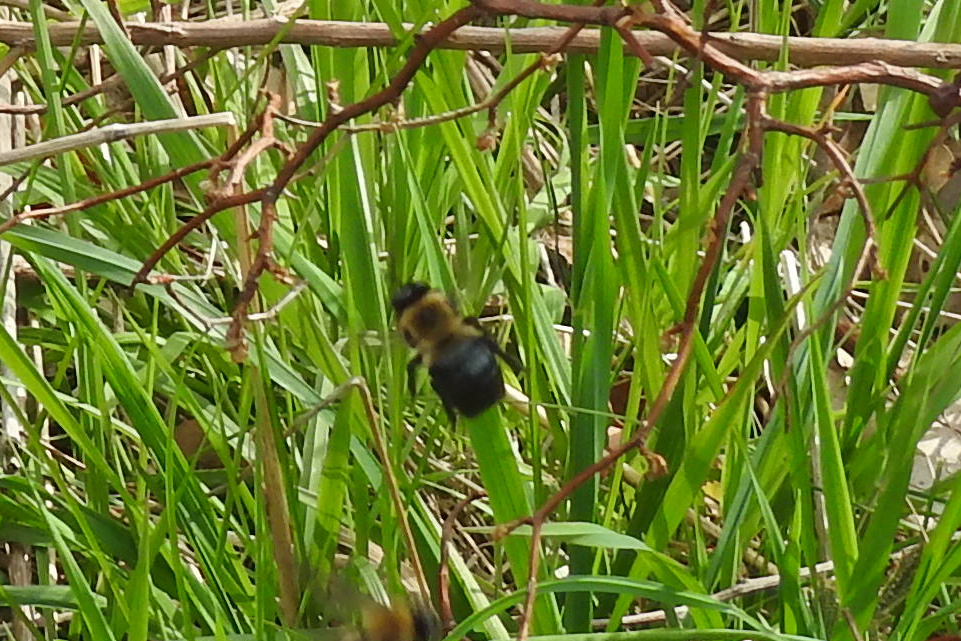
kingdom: Animalia
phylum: Arthropoda
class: Insecta
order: Hymenoptera
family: Apidae
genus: Xylocopa
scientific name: Xylocopa virginica
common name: Carpenter bee
